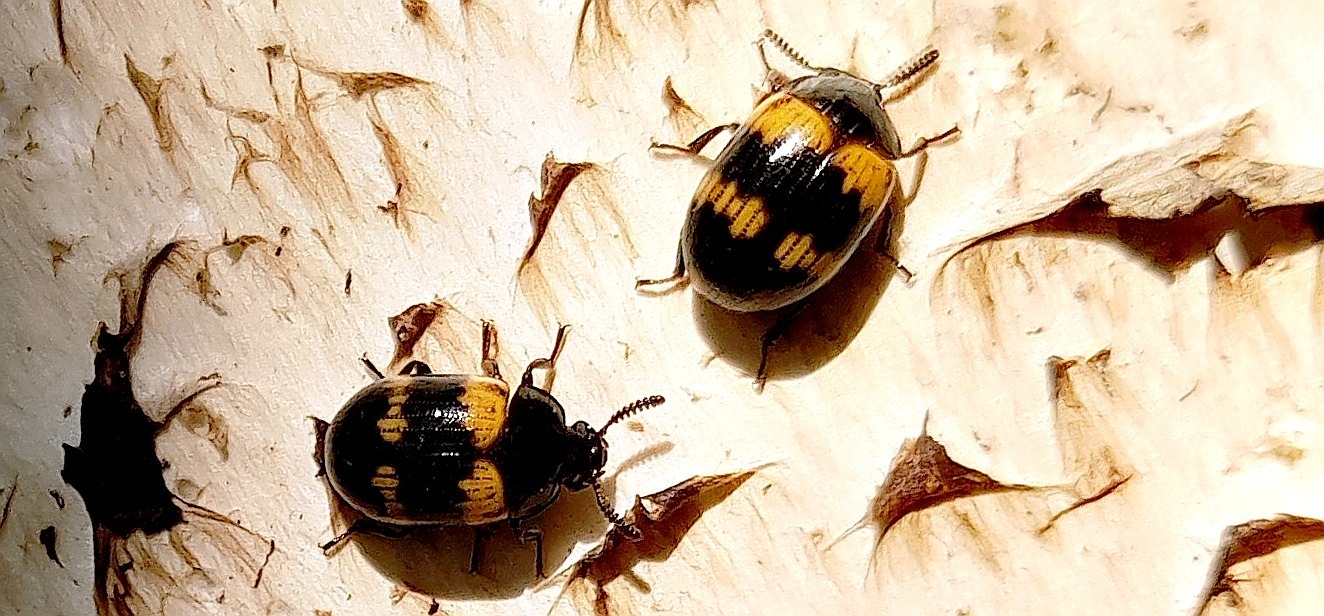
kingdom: Animalia
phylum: Arthropoda
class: Insecta
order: Coleoptera
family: Tenebrionidae
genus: Diaperis
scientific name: Diaperis boleti
